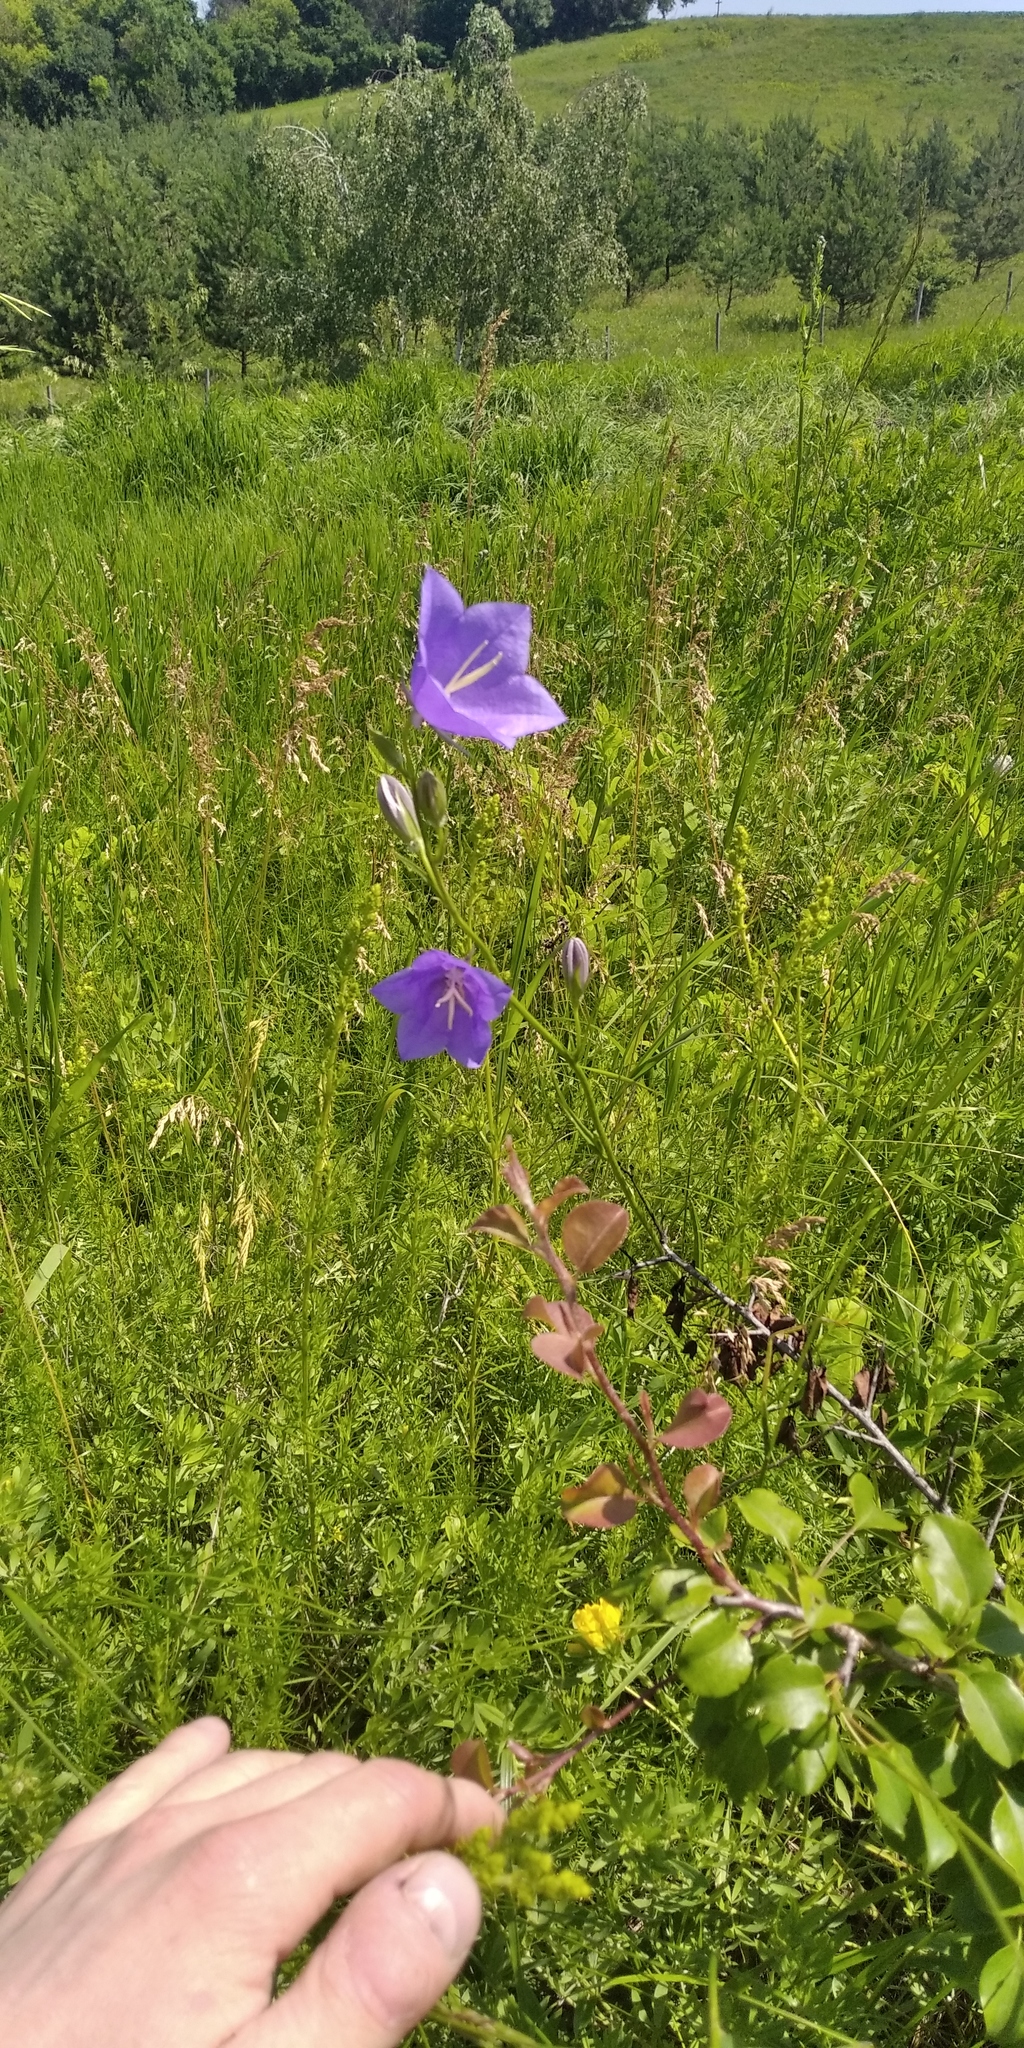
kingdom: Plantae
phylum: Tracheophyta
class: Magnoliopsida
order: Asterales
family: Campanulaceae
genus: Campanula
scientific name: Campanula persicifolia
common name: Peach-leaved bellflower
